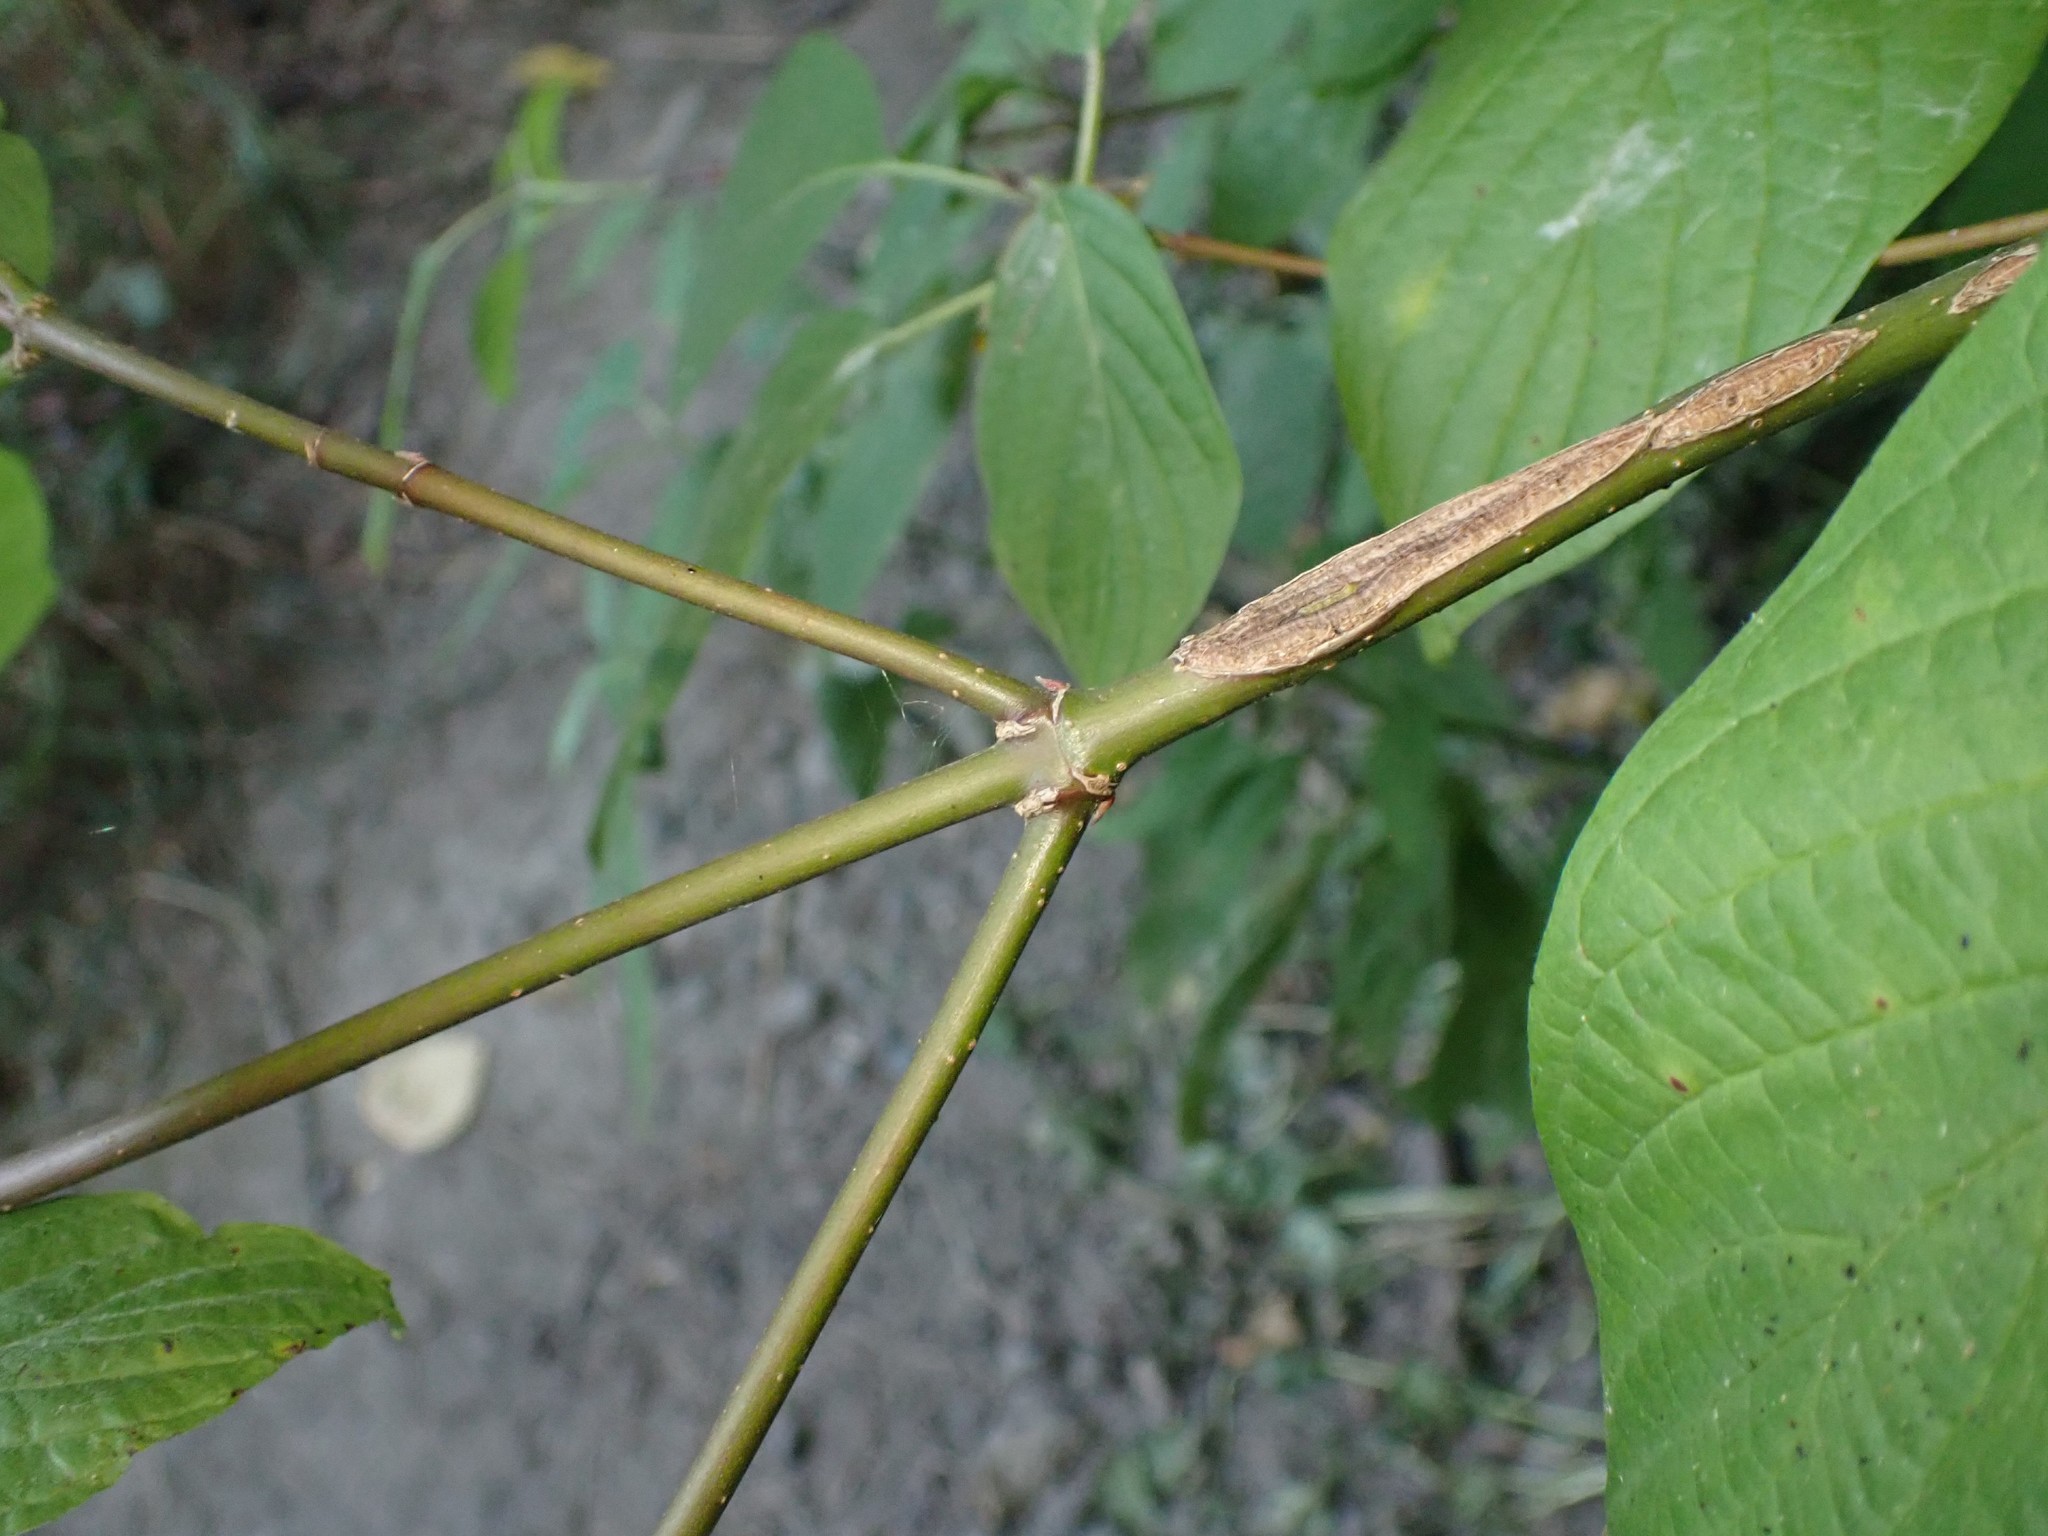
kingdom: Plantae
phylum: Tracheophyta
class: Magnoliopsida
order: Cornales
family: Cornaceae
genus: Cornus
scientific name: Cornus sericea
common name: Red-osier dogwood
